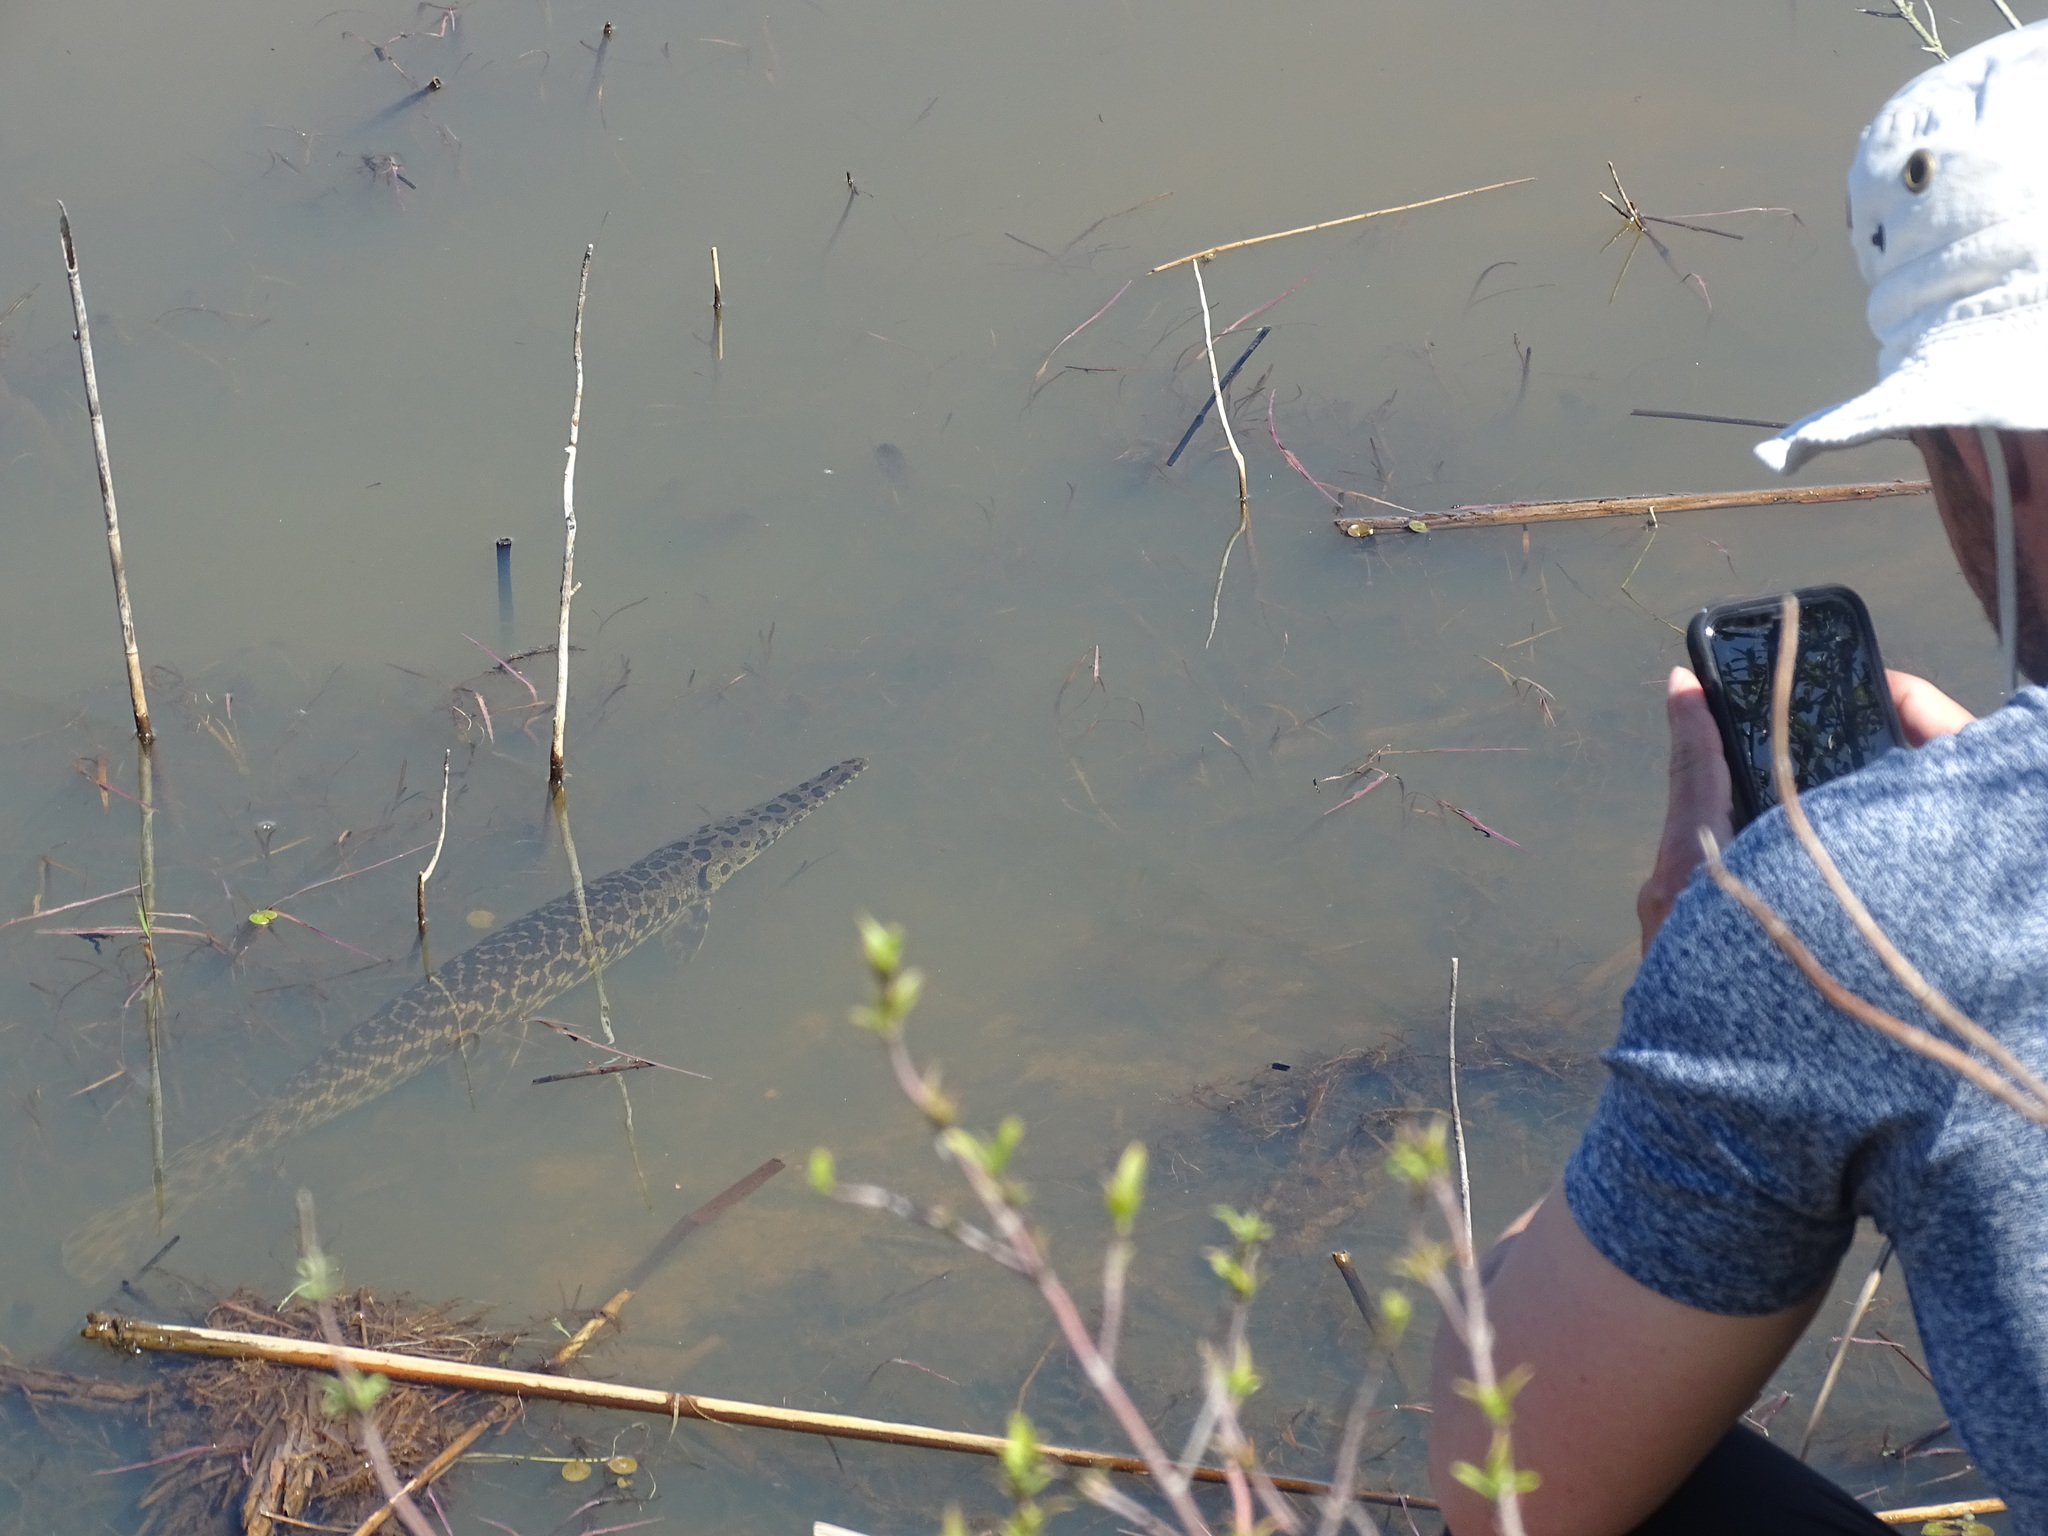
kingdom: Animalia
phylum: Chordata
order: Lepisosteiformes
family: Lepisosteidae
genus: Lepisosteus
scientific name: Lepisosteus oculatus
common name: Spotted gar
